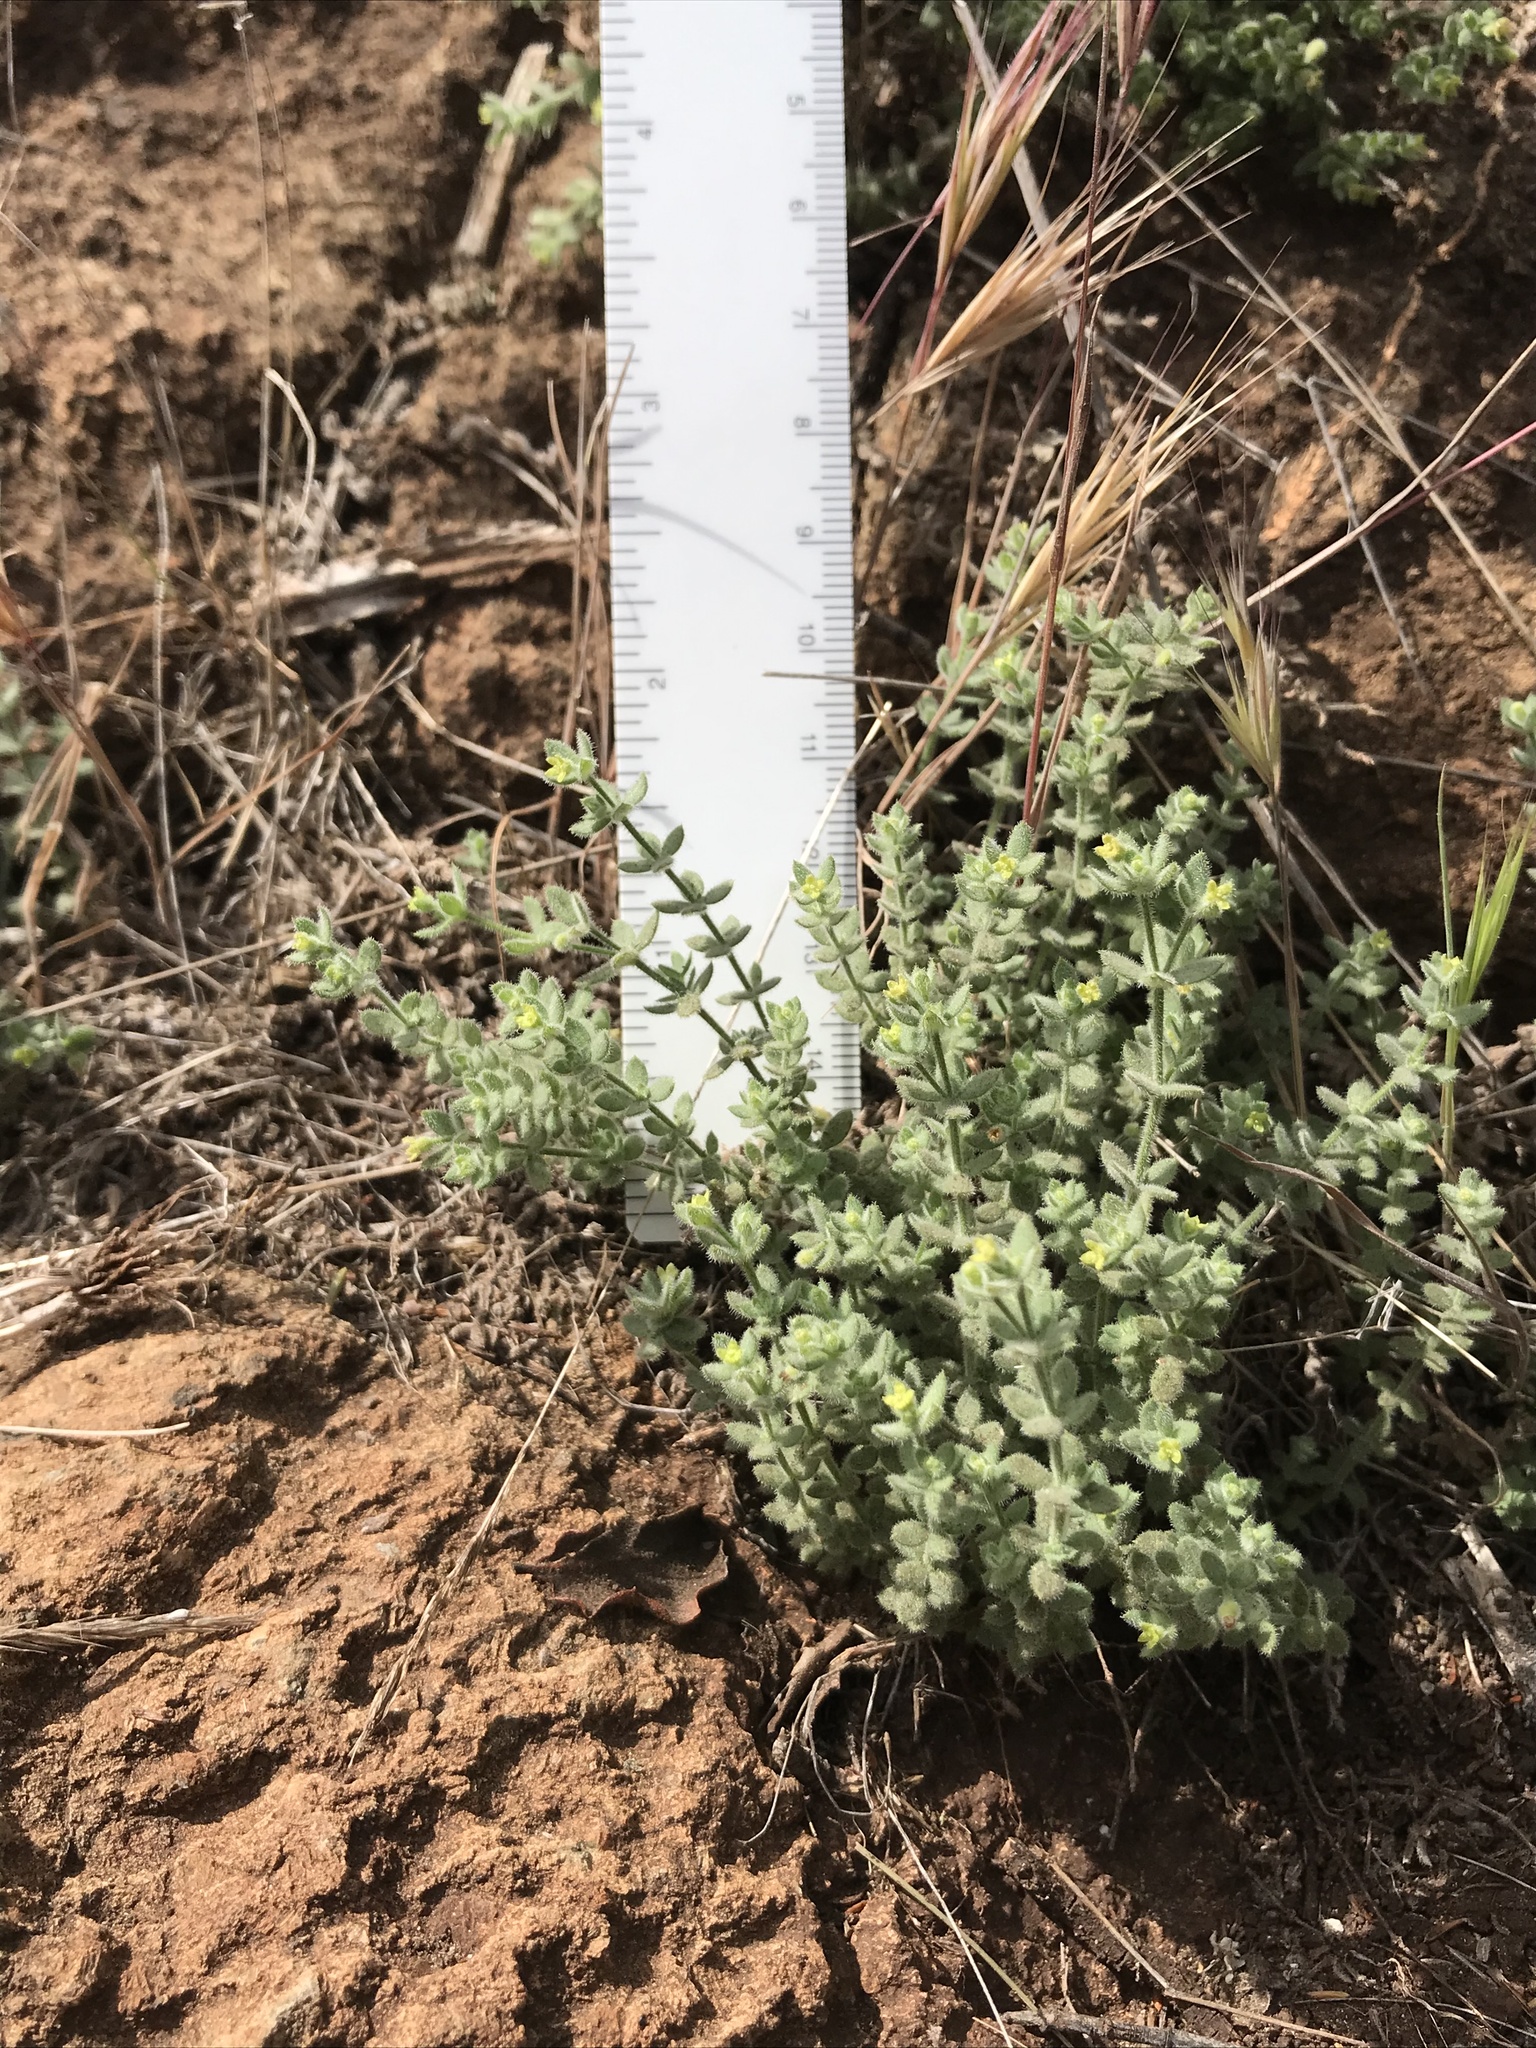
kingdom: Plantae
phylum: Tracheophyta
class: Magnoliopsida
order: Gentianales
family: Rubiaceae
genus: Galium
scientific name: Galium californicum
